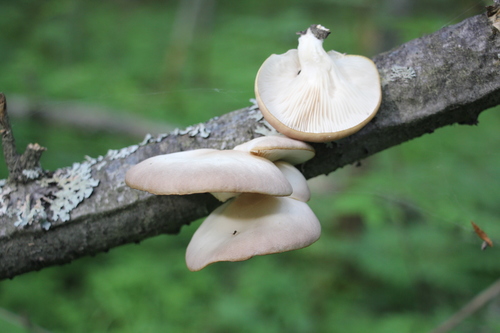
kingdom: Fungi
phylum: Basidiomycota
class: Agaricomycetes
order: Agaricales
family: Pleurotaceae
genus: Pleurotus
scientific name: Pleurotus pulmonarius
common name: Pale oyster
